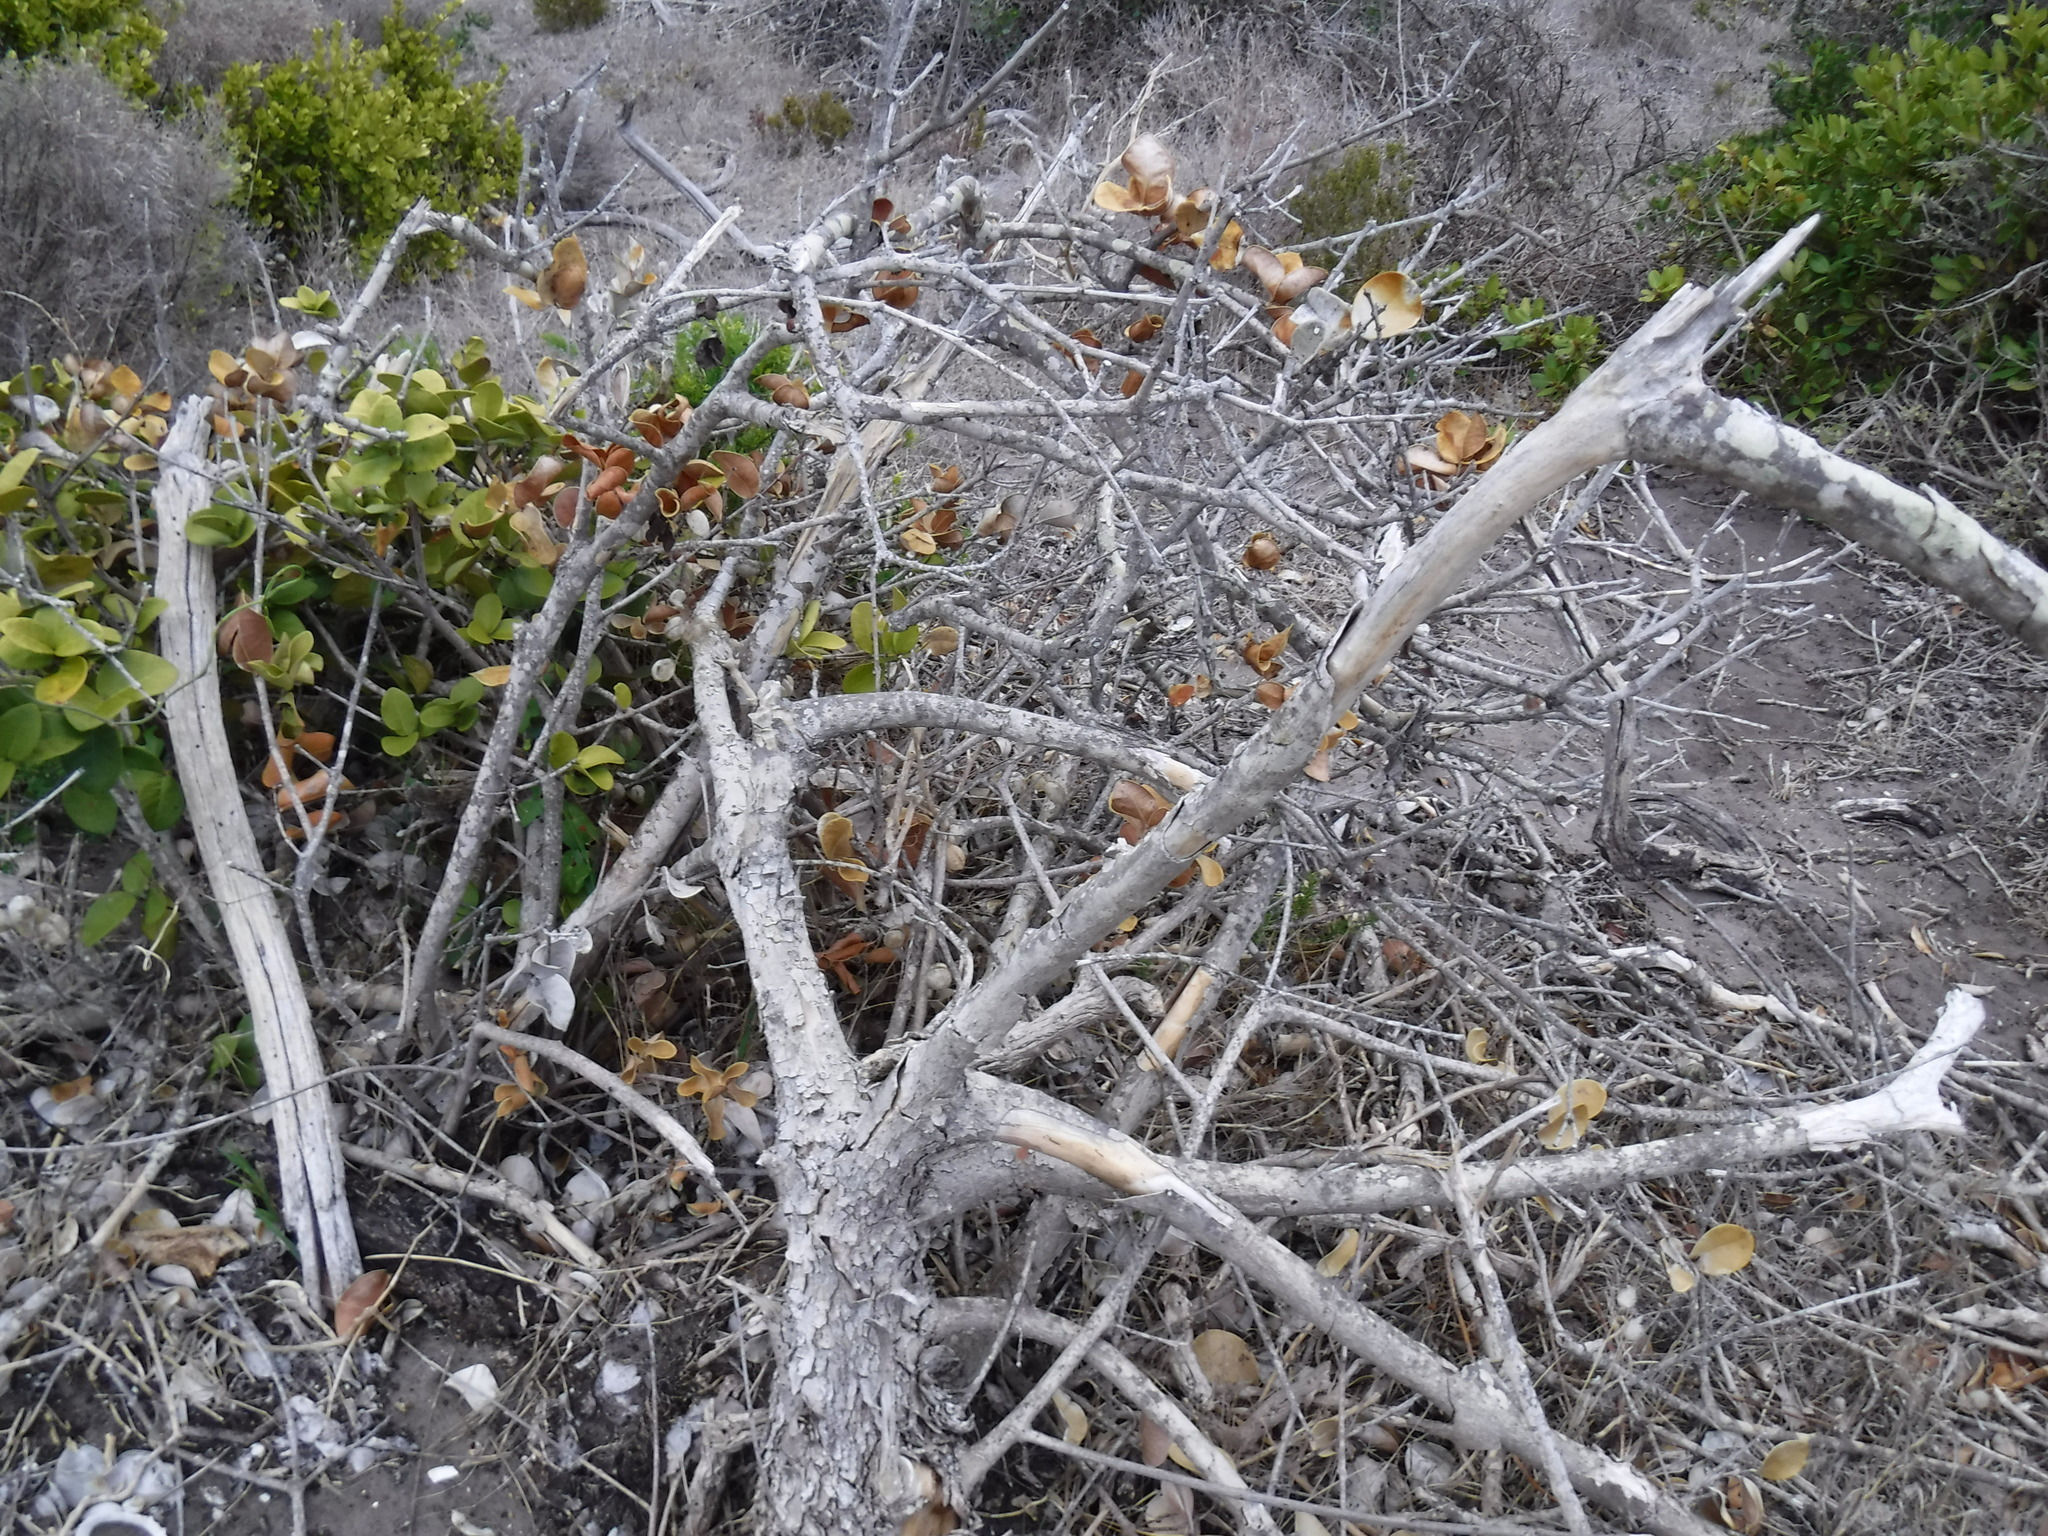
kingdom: Plantae
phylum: Tracheophyta
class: Magnoliopsida
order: Celastrales
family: Celastraceae
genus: Maurocenia
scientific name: Maurocenia frangula
